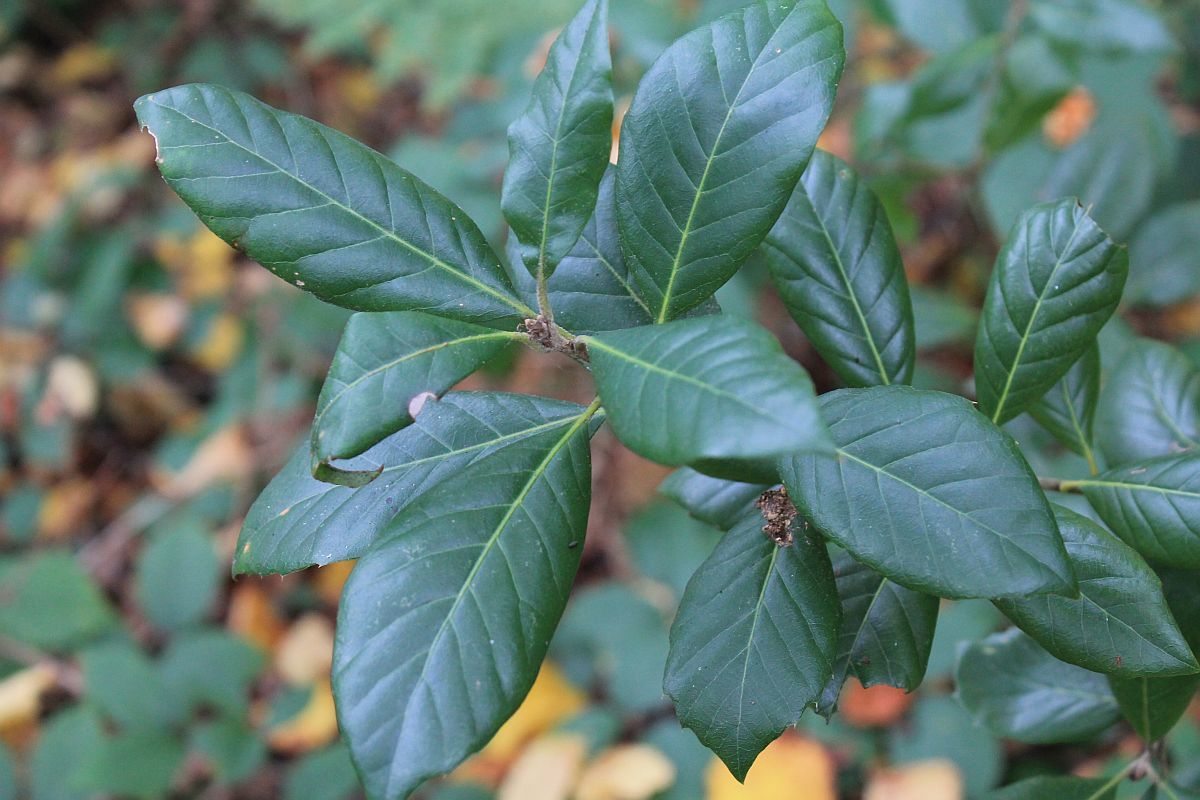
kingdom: Plantae
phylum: Tracheophyta
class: Magnoliopsida
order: Fagales
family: Fagaceae
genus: Quercus
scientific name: Quercus ilex
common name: Evergreen oak
